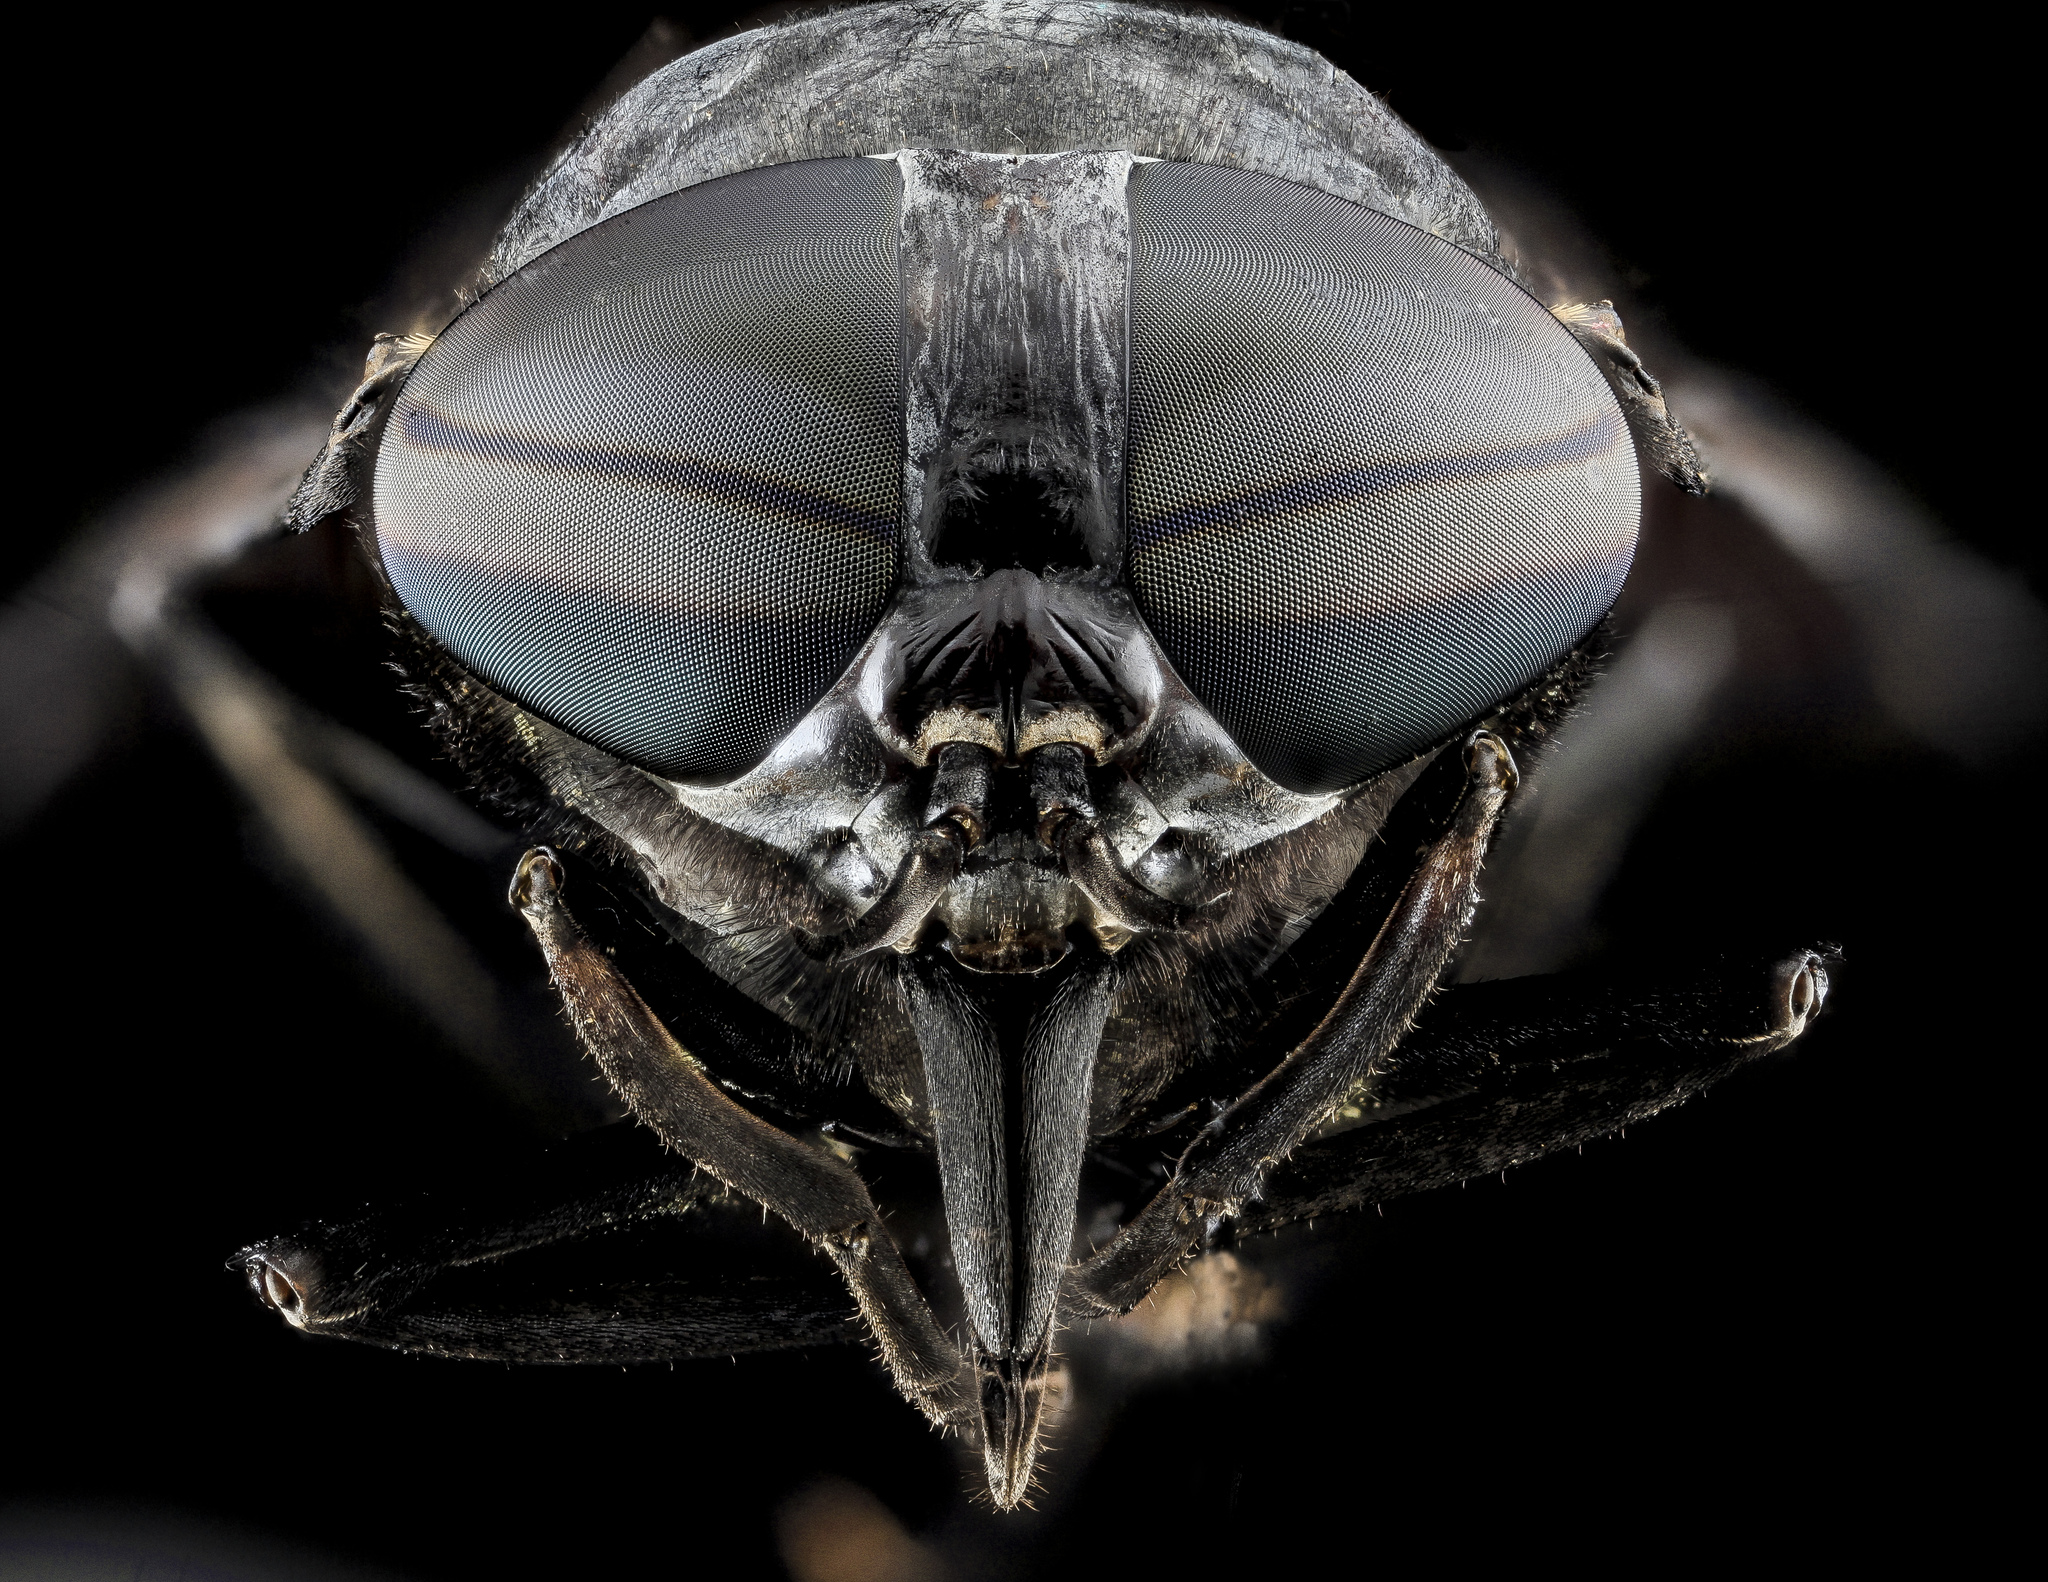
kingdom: Animalia
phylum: Arthropoda
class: Insecta
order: Diptera
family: Tabanidae
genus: Tabanus
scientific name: Tabanus atratus
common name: Black horse fly
